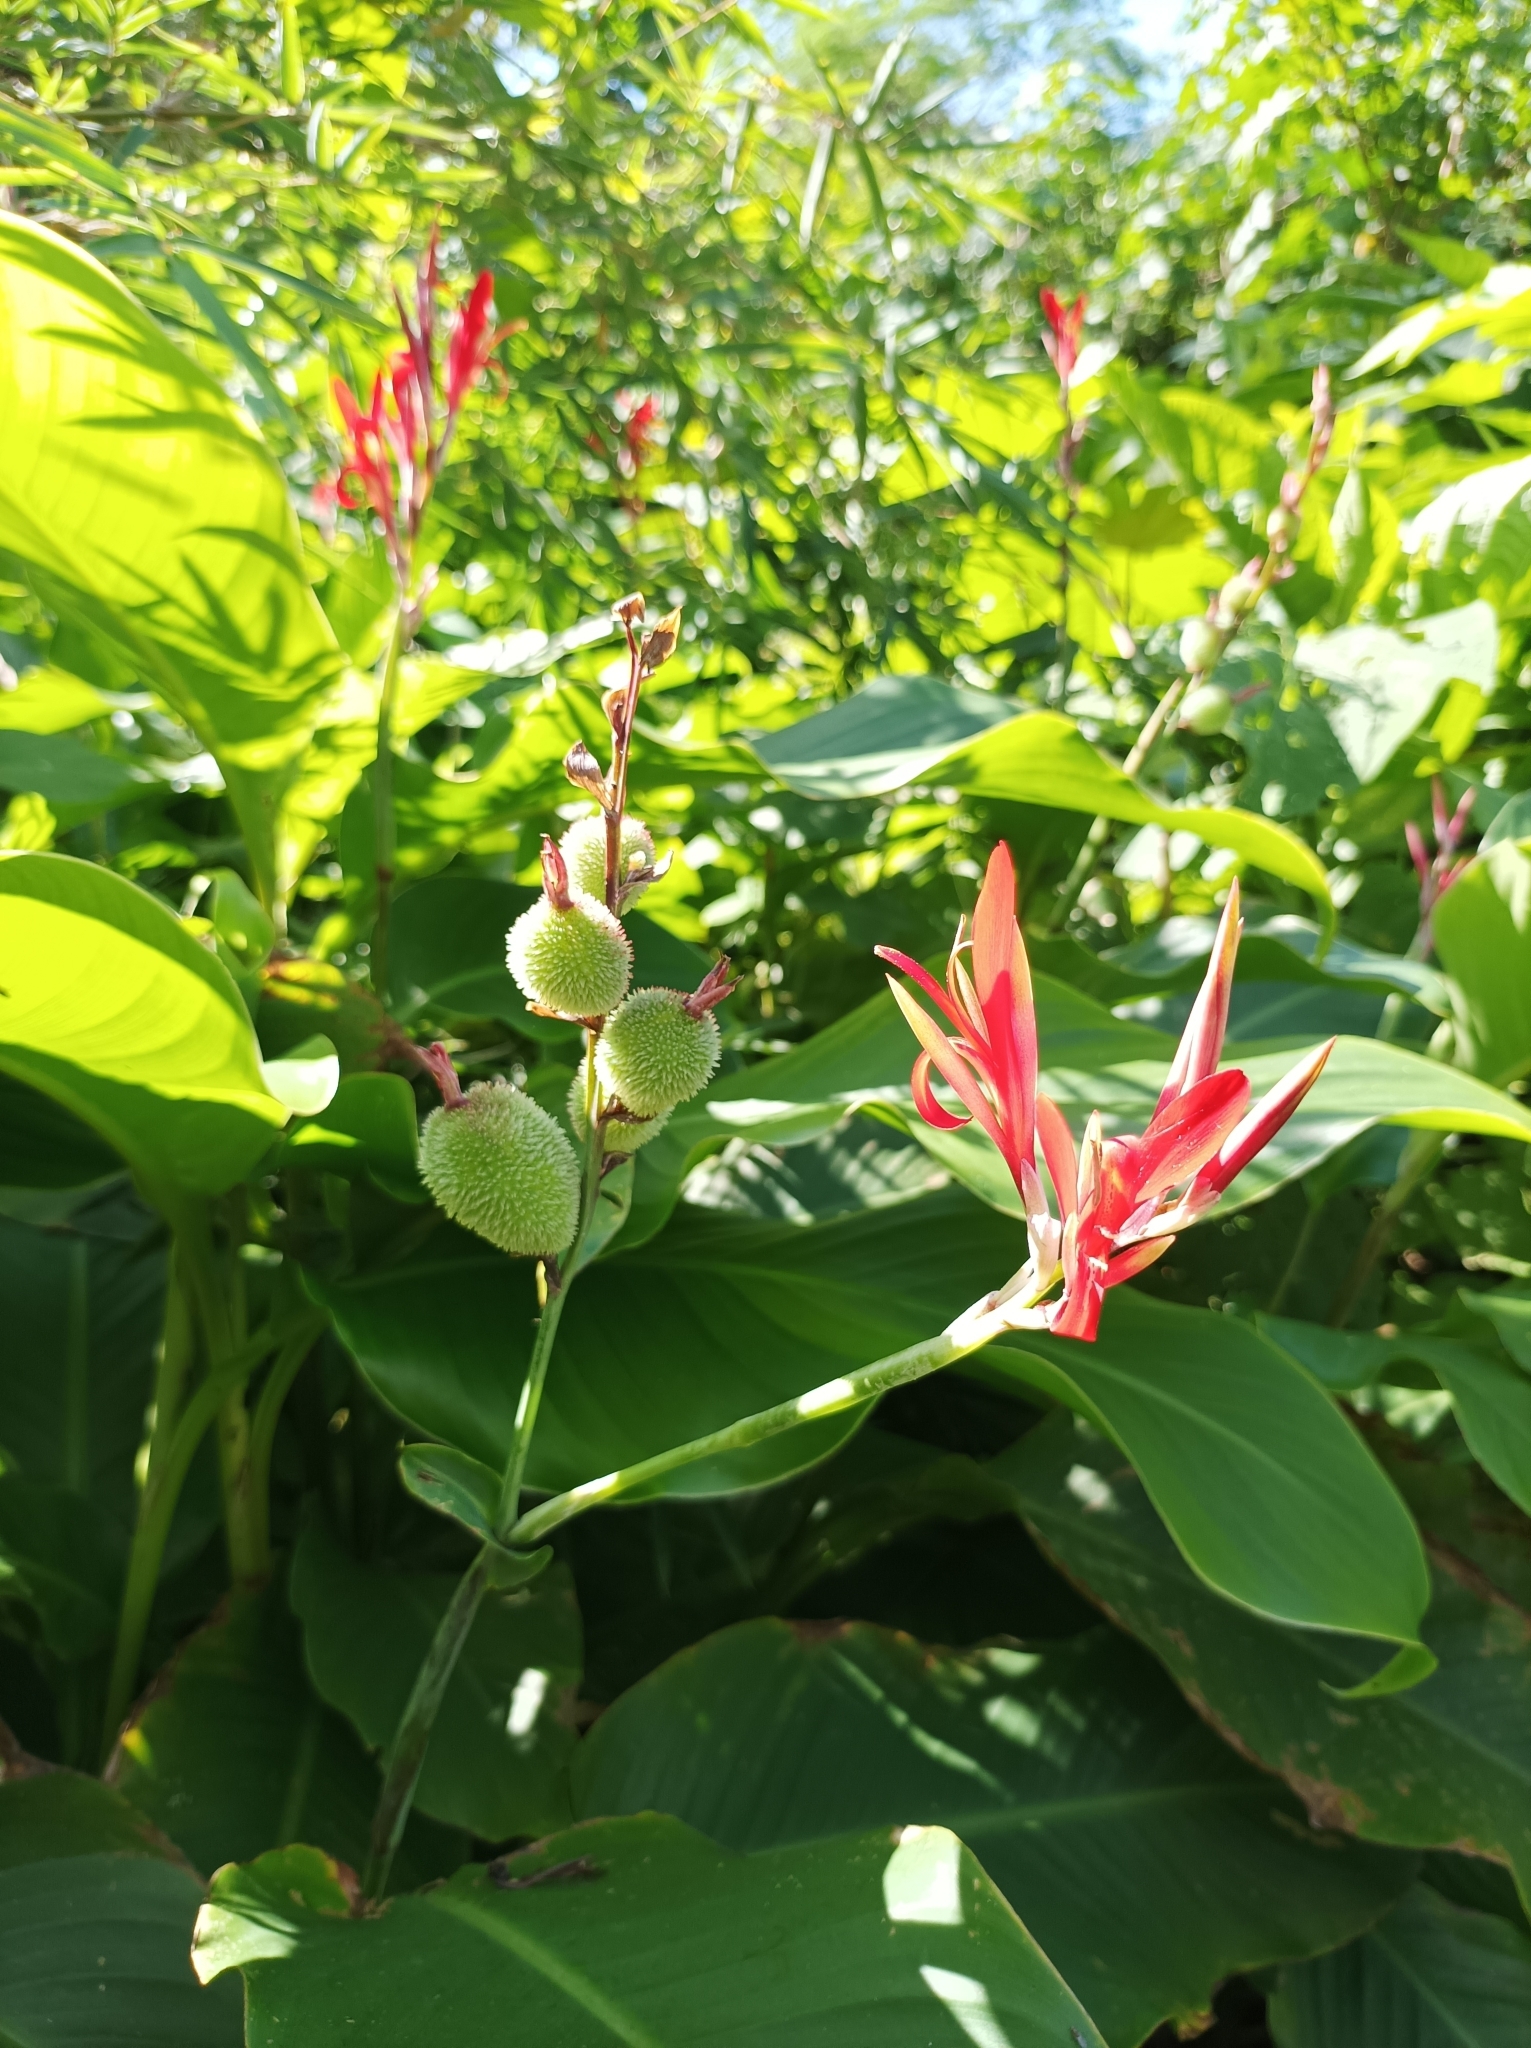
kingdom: Plantae
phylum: Tracheophyta
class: Liliopsida
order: Zingiberales
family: Cannaceae
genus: Canna
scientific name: Canna indica
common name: Indian shot
